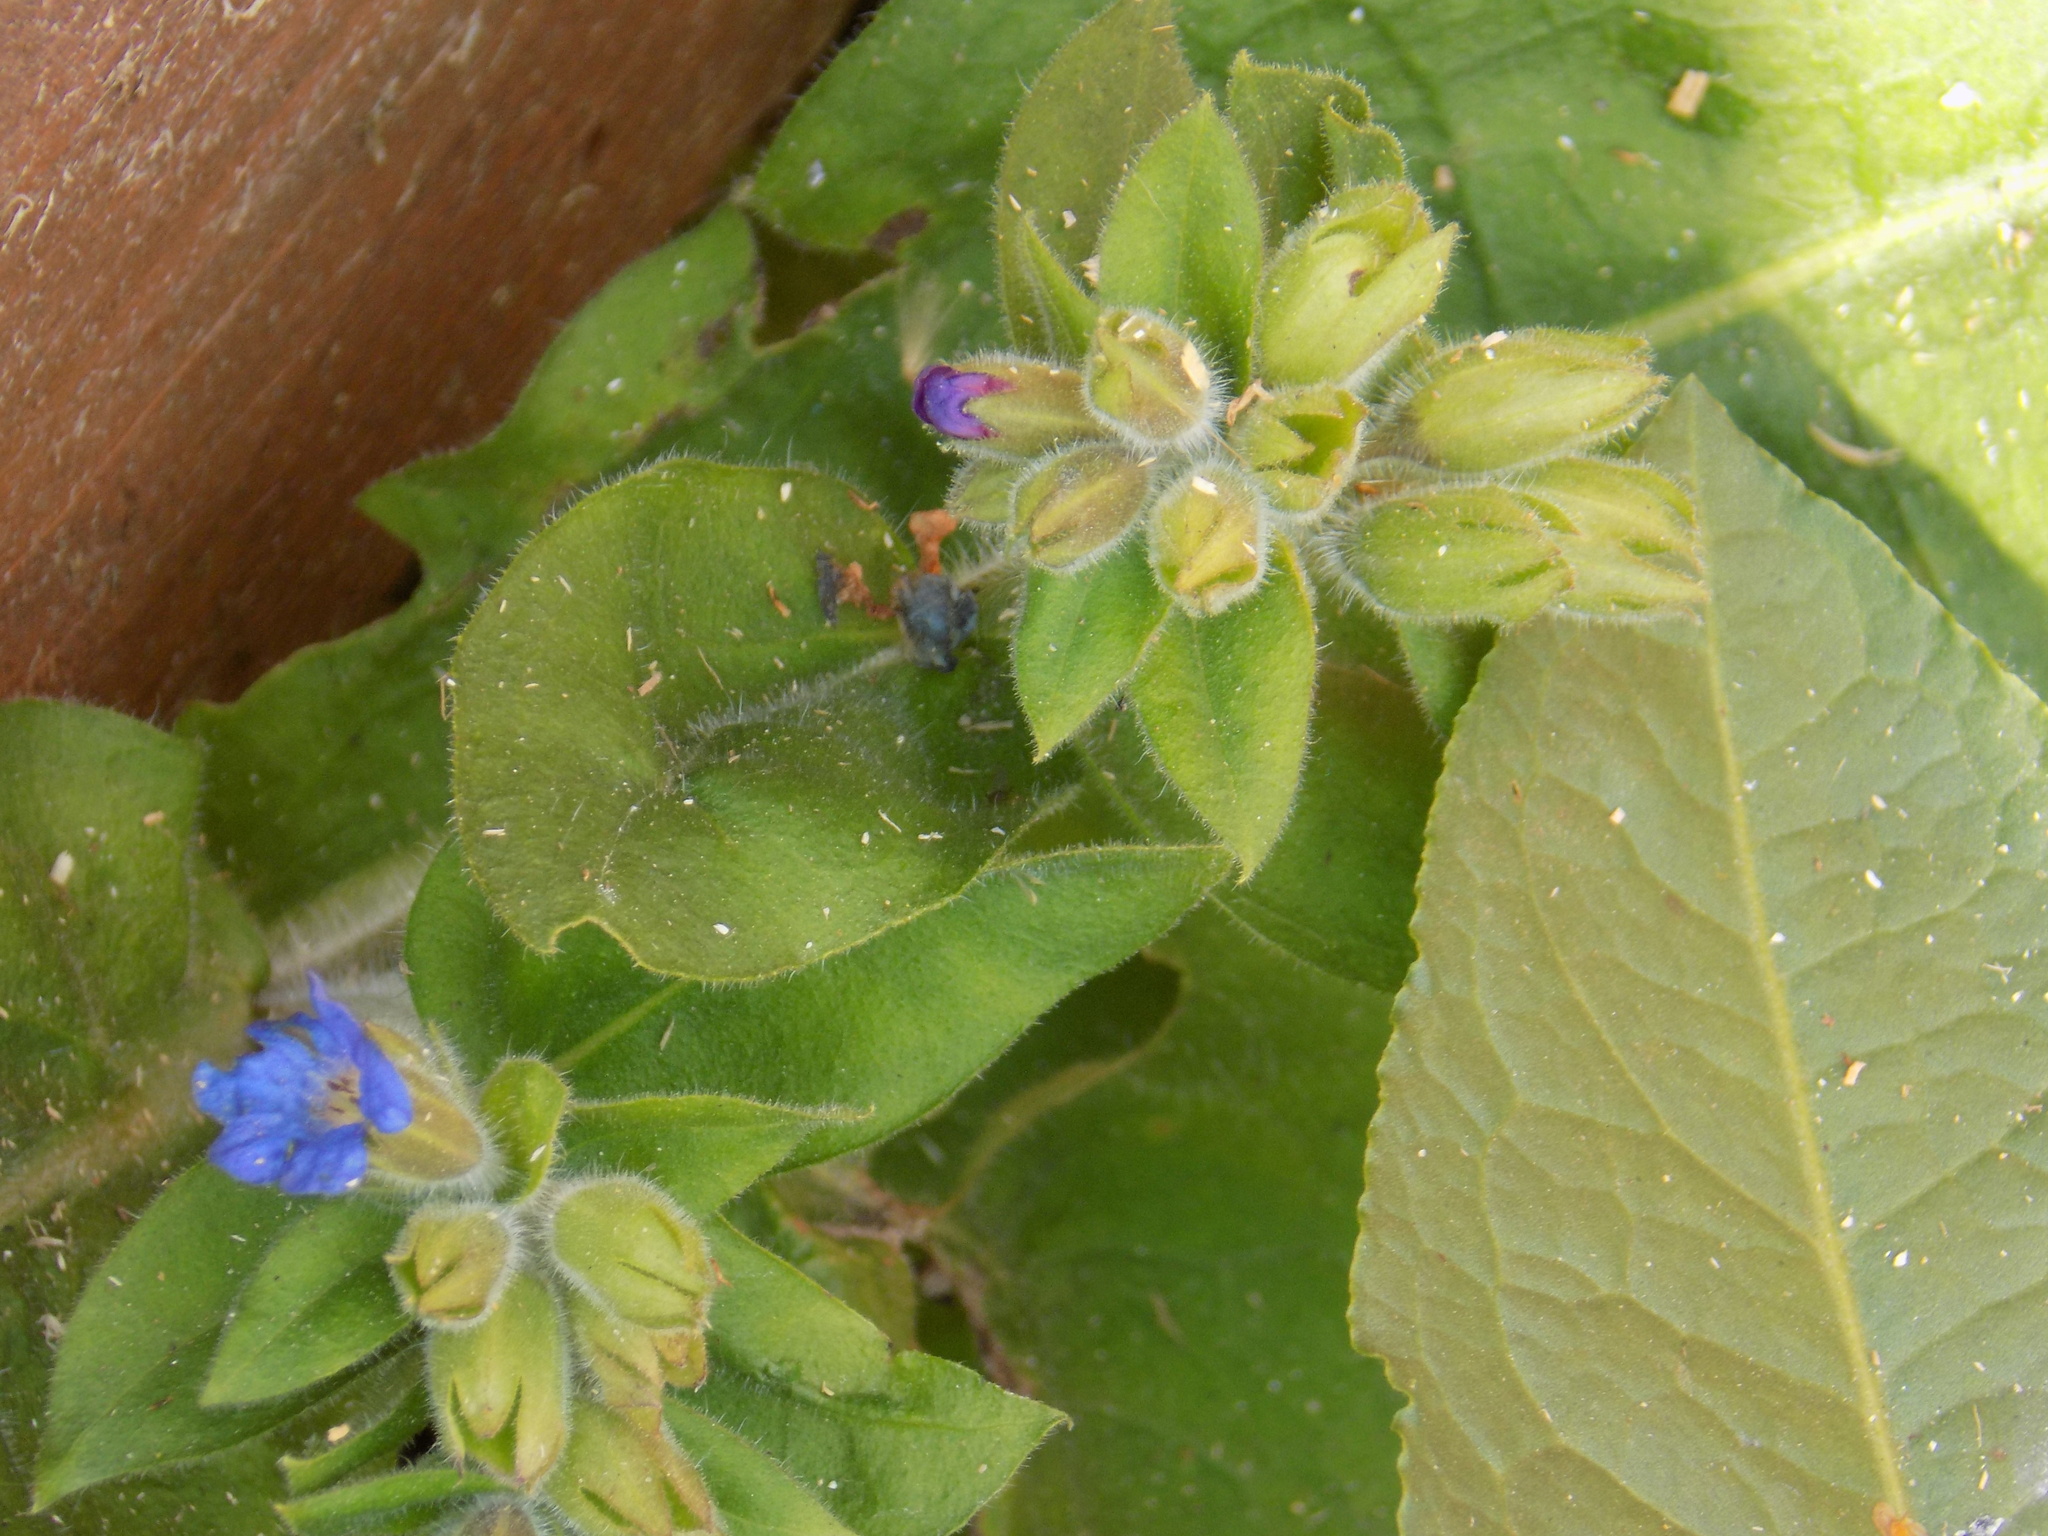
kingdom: Plantae
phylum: Tracheophyta
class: Magnoliopsida
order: Boraginales
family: Boraginaceae
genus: Pulmonaria
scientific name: Pulmonaria mollis
